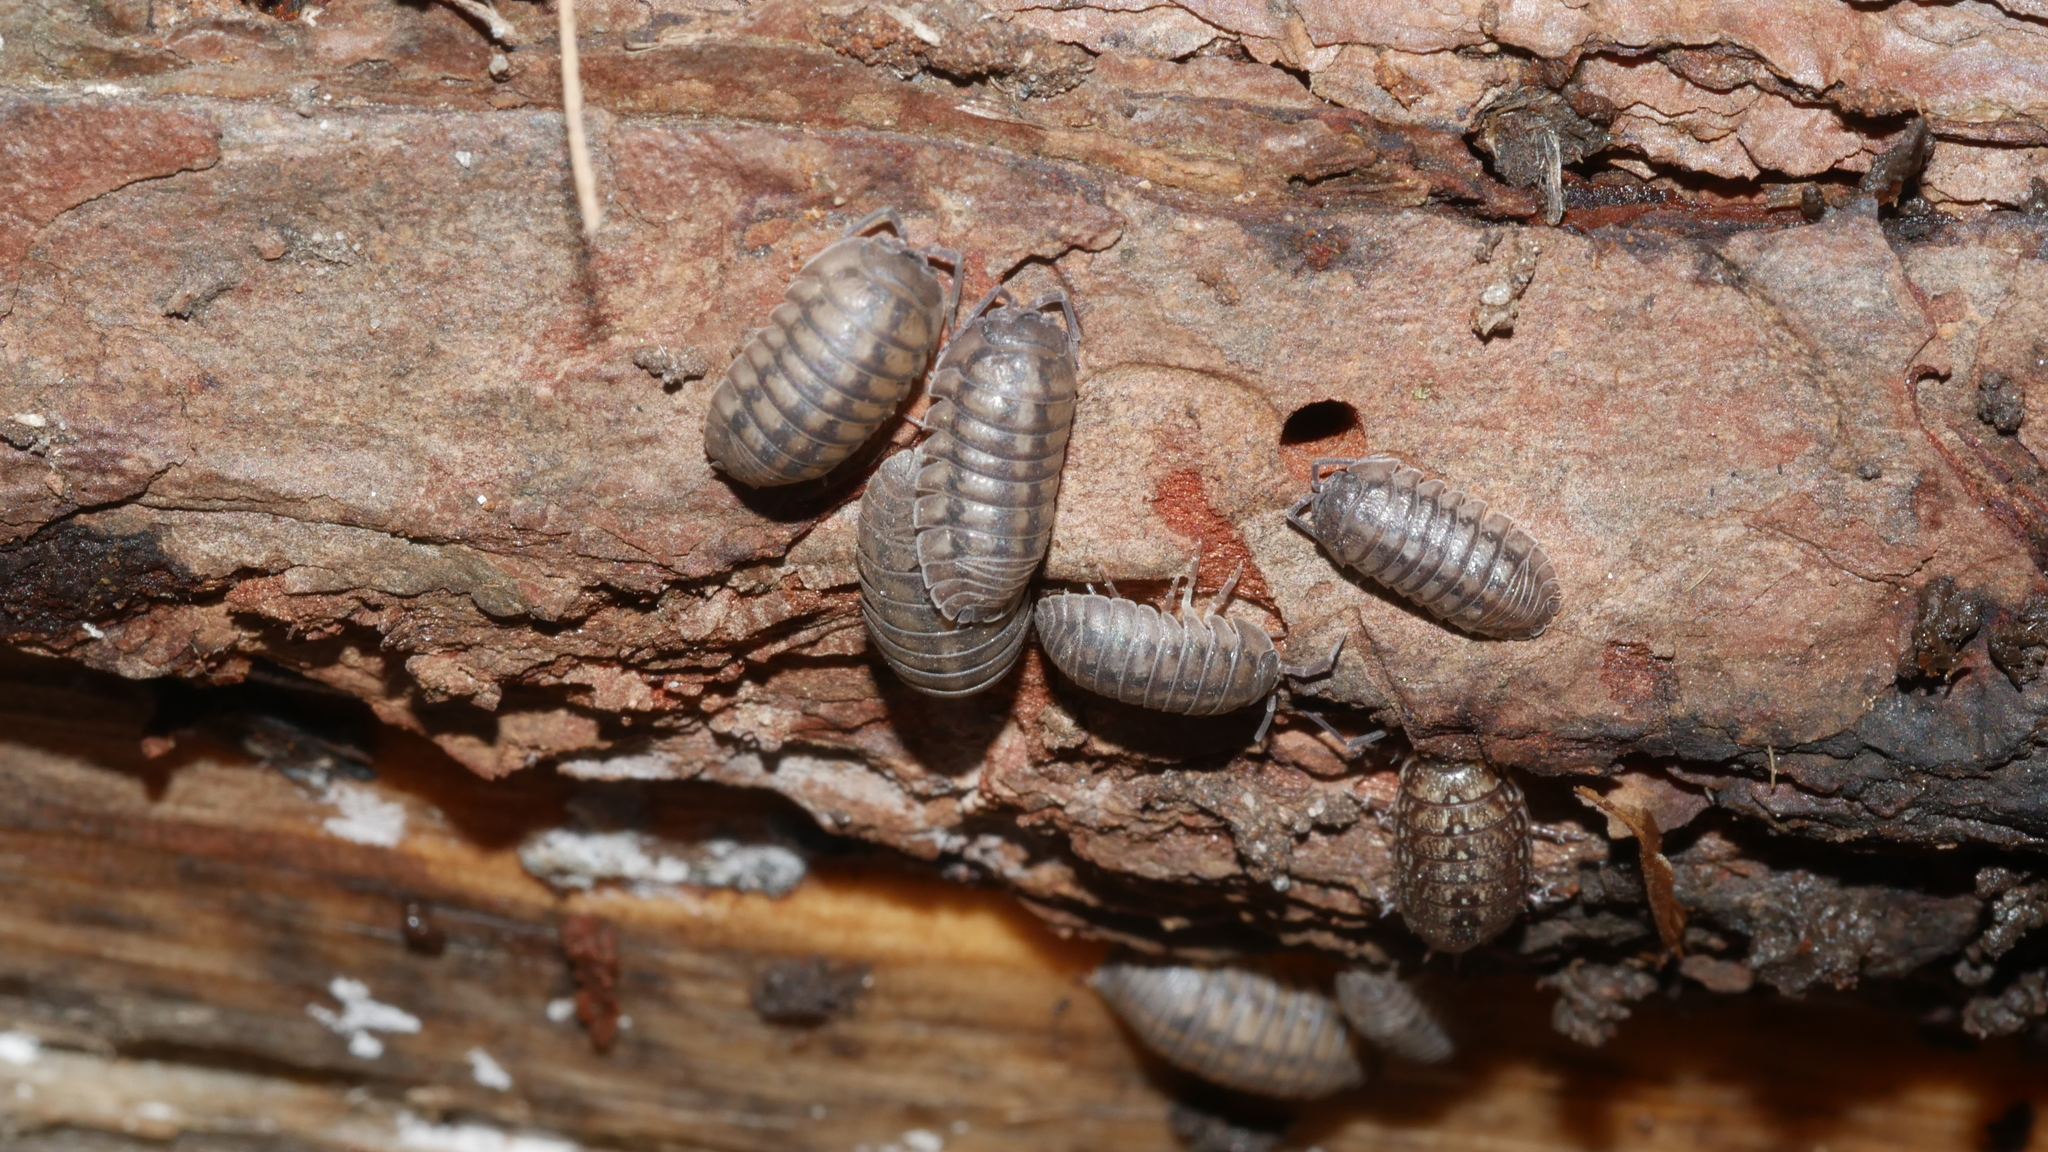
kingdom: Animalia
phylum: Arthropoda
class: Malacostraca
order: Isopoda
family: Armadillidiidae
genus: Armadillidium
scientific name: Armadillidium nasatum
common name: Isopod
